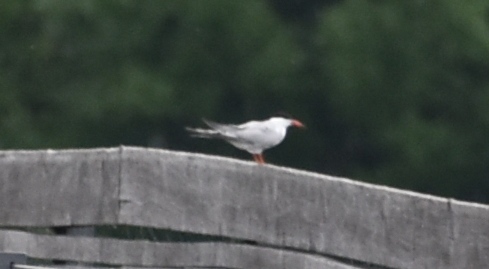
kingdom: Animalia
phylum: Chordata
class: Aves
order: Charadriiformes
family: Laridae
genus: Sterna
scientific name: Sterna hirundo
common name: Common tern
